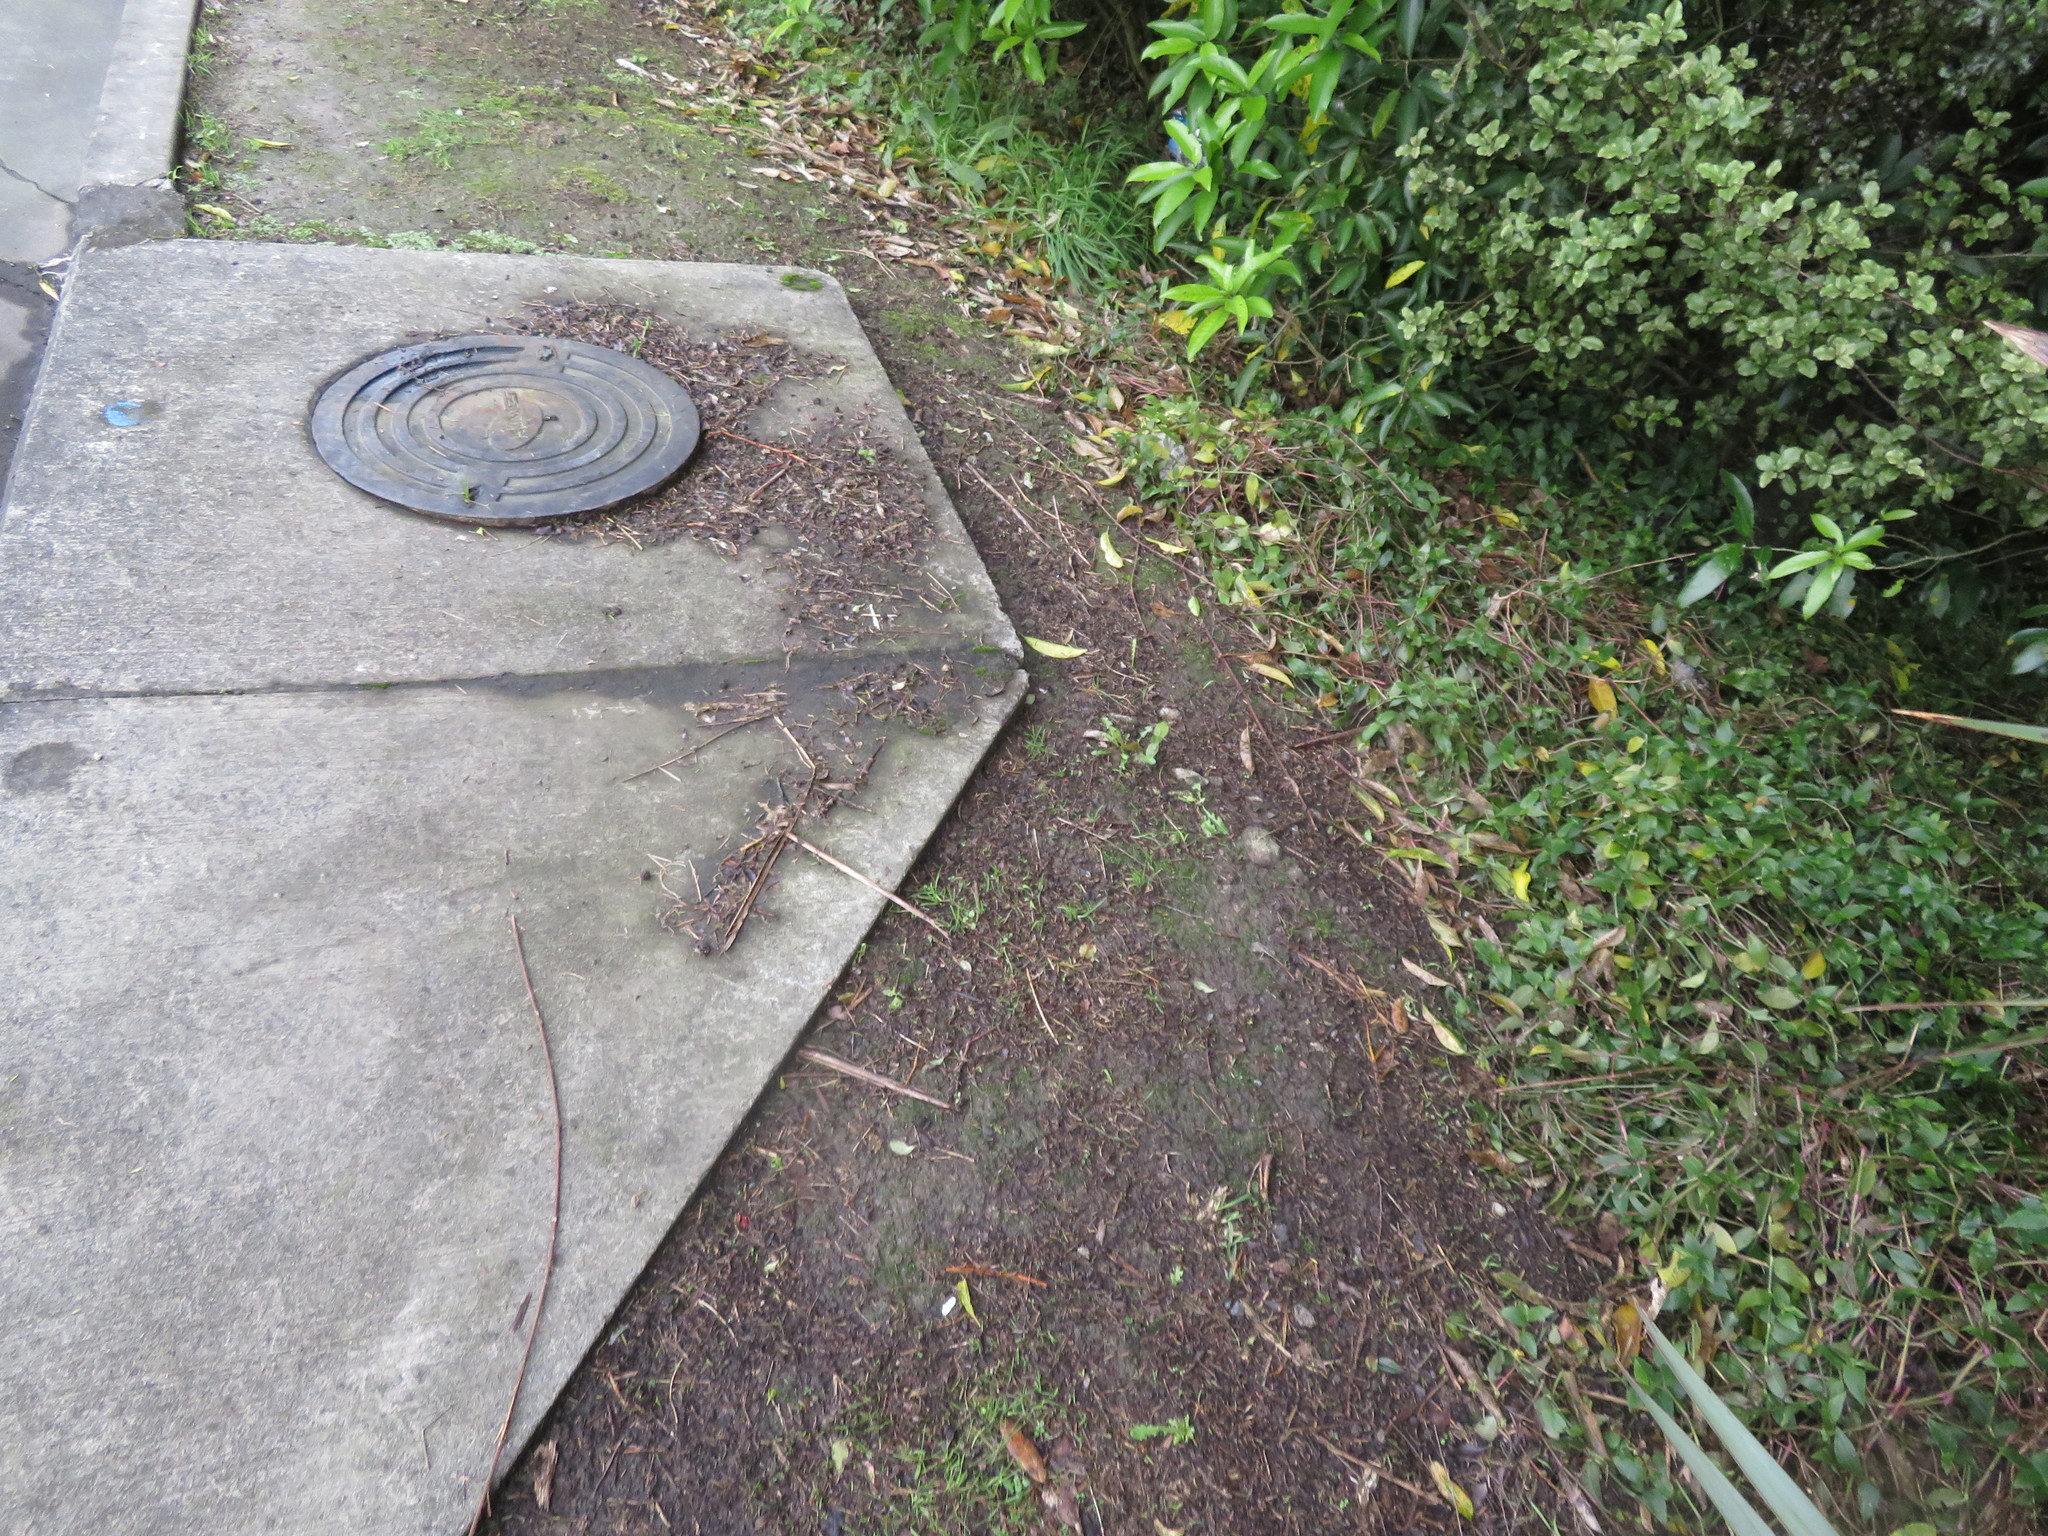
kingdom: Plantae
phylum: Tracheophyta
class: Magnoliopsida
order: Malpighiales
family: Violaceae
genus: Melicytus
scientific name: Melicytus ramiflorus
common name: Mahoe
